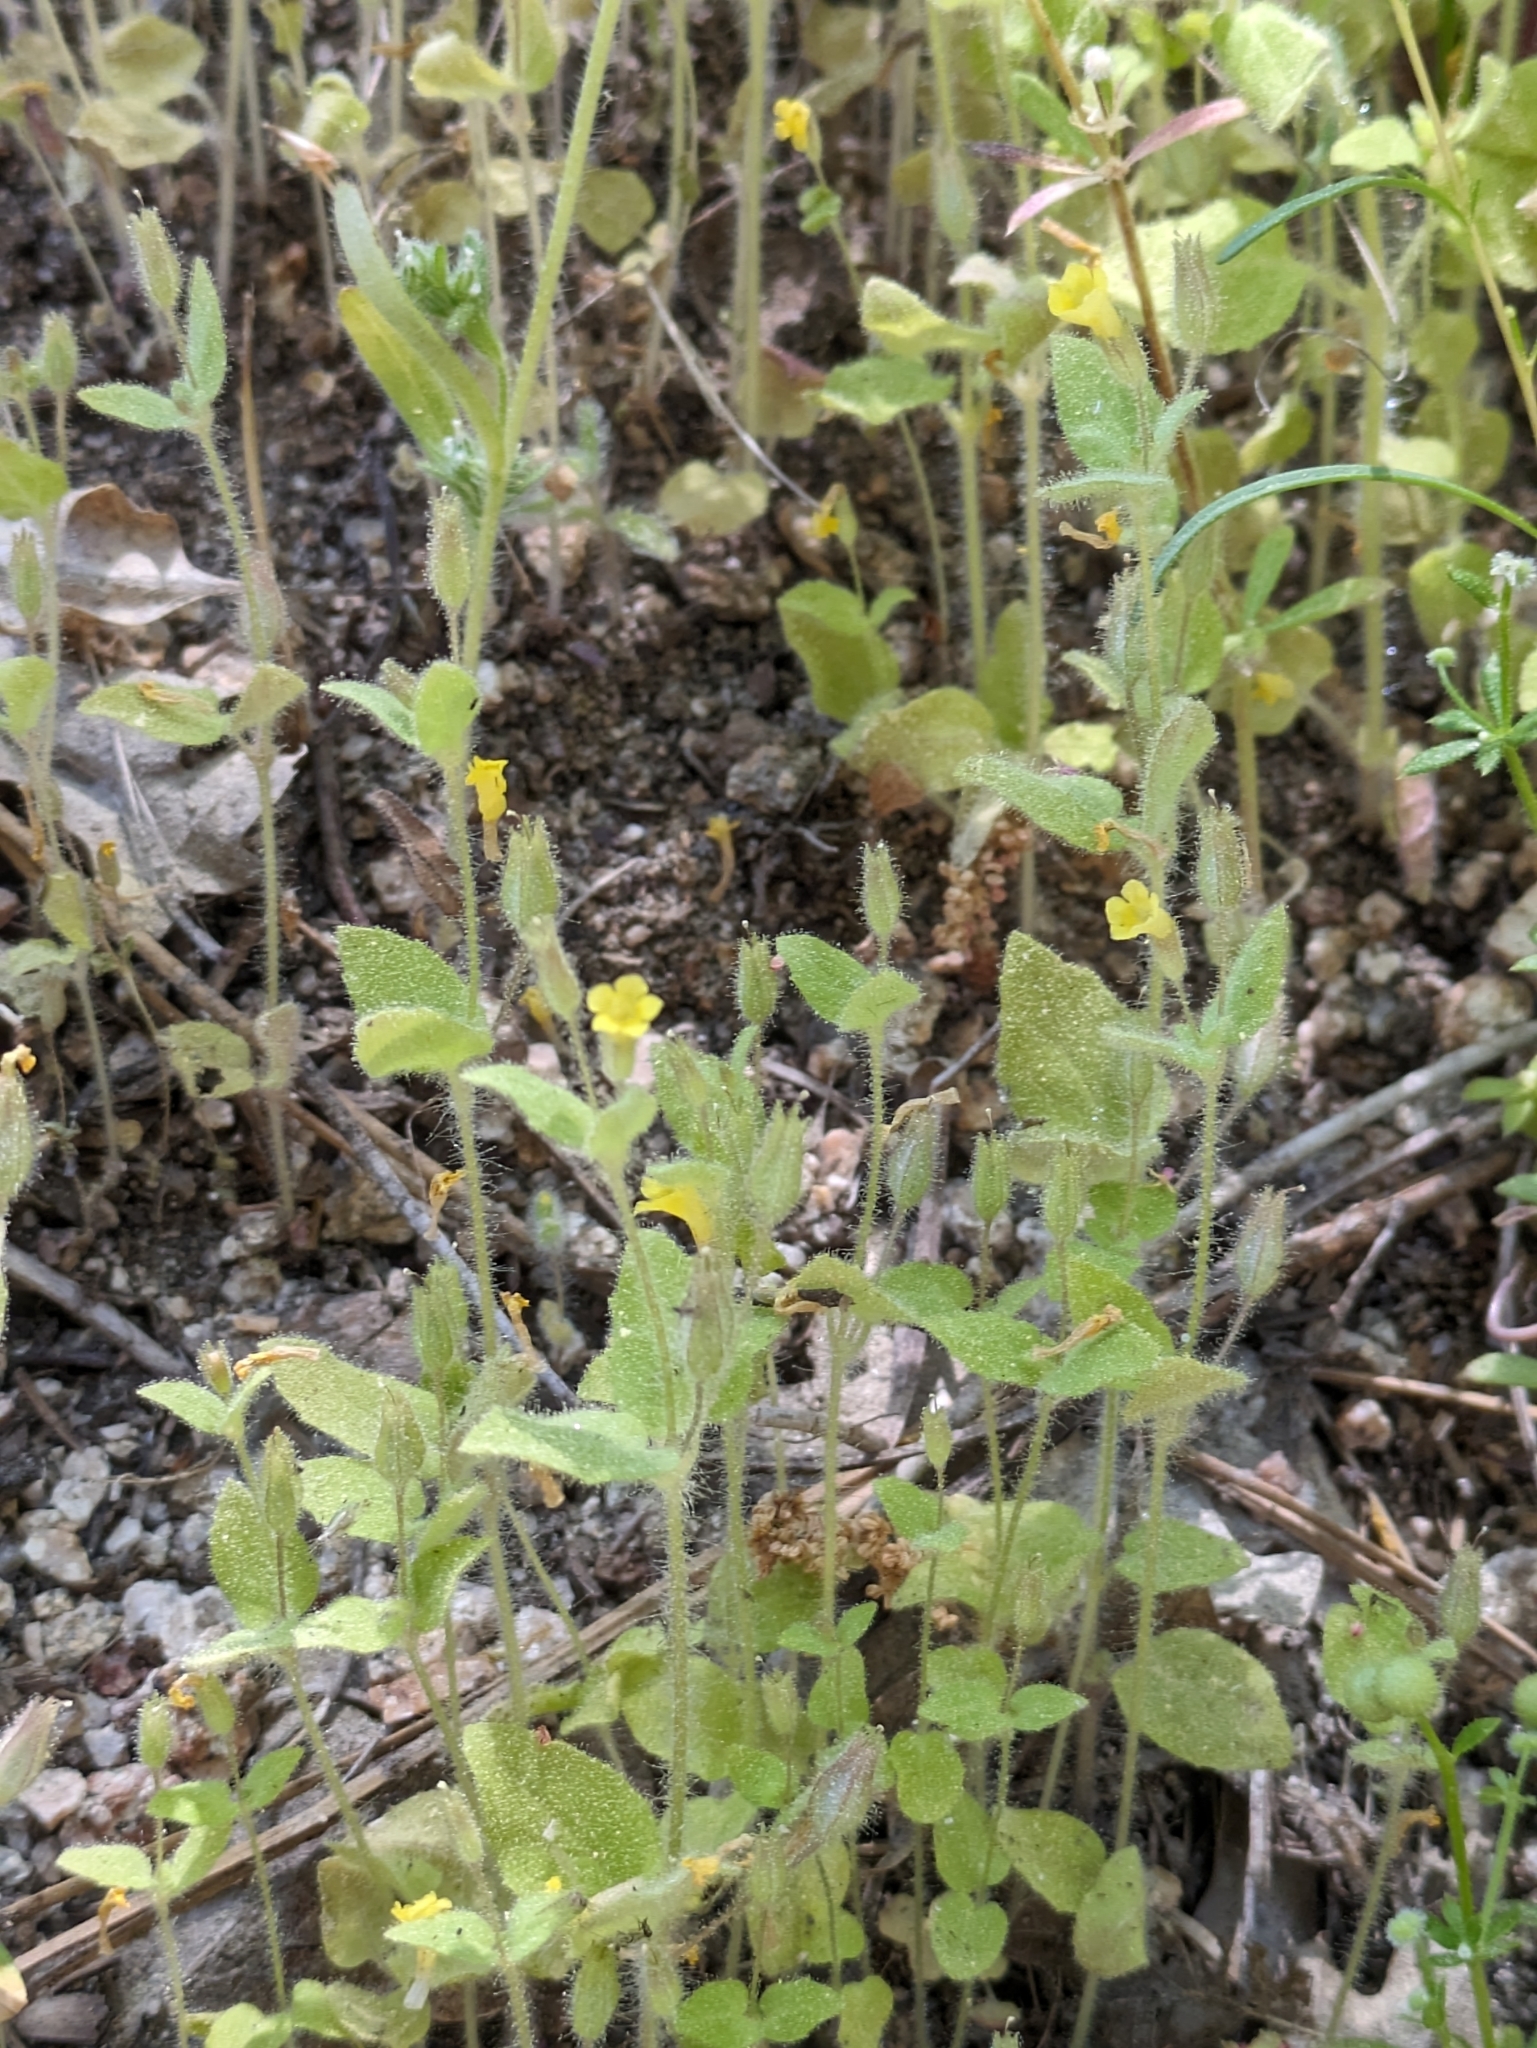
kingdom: Plantae
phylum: Tracheophyta
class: Magnoliopsida
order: Lamiales
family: Phrymaceae
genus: Erythranthe
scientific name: Erythranthe floribunda
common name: Floriferous monkeyflower
